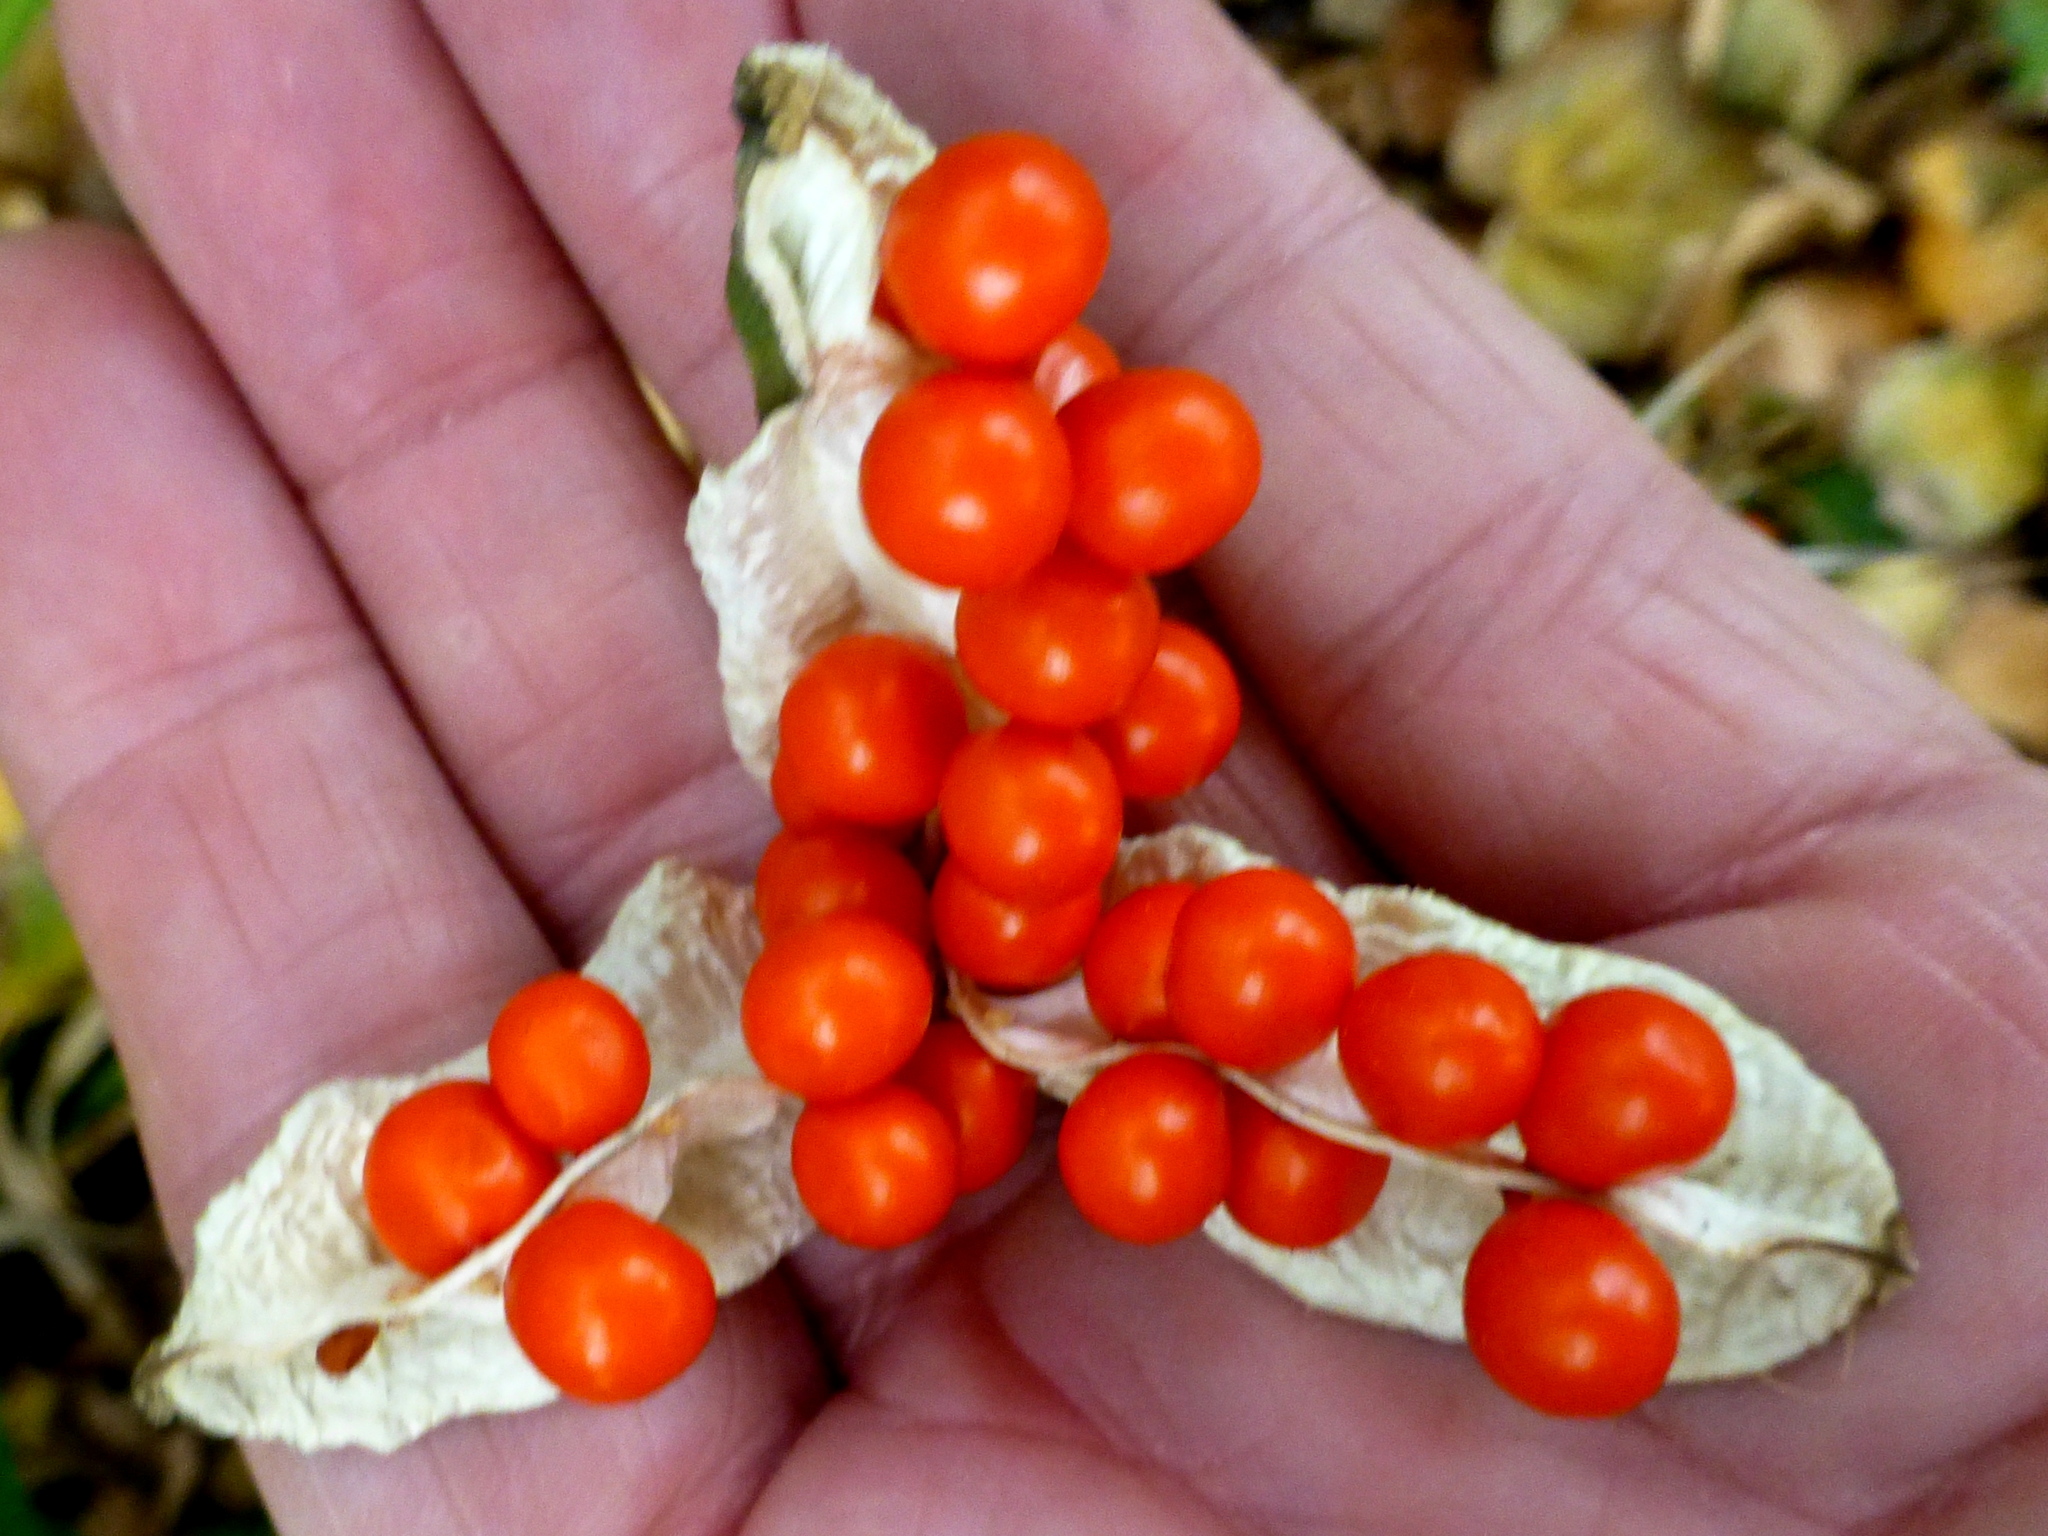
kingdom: Plantae
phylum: Tracheophyta
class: Liliopsida
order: Asparagales
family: Iridaceae
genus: Iris
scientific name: Iris foetidissima
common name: Stinking iris
